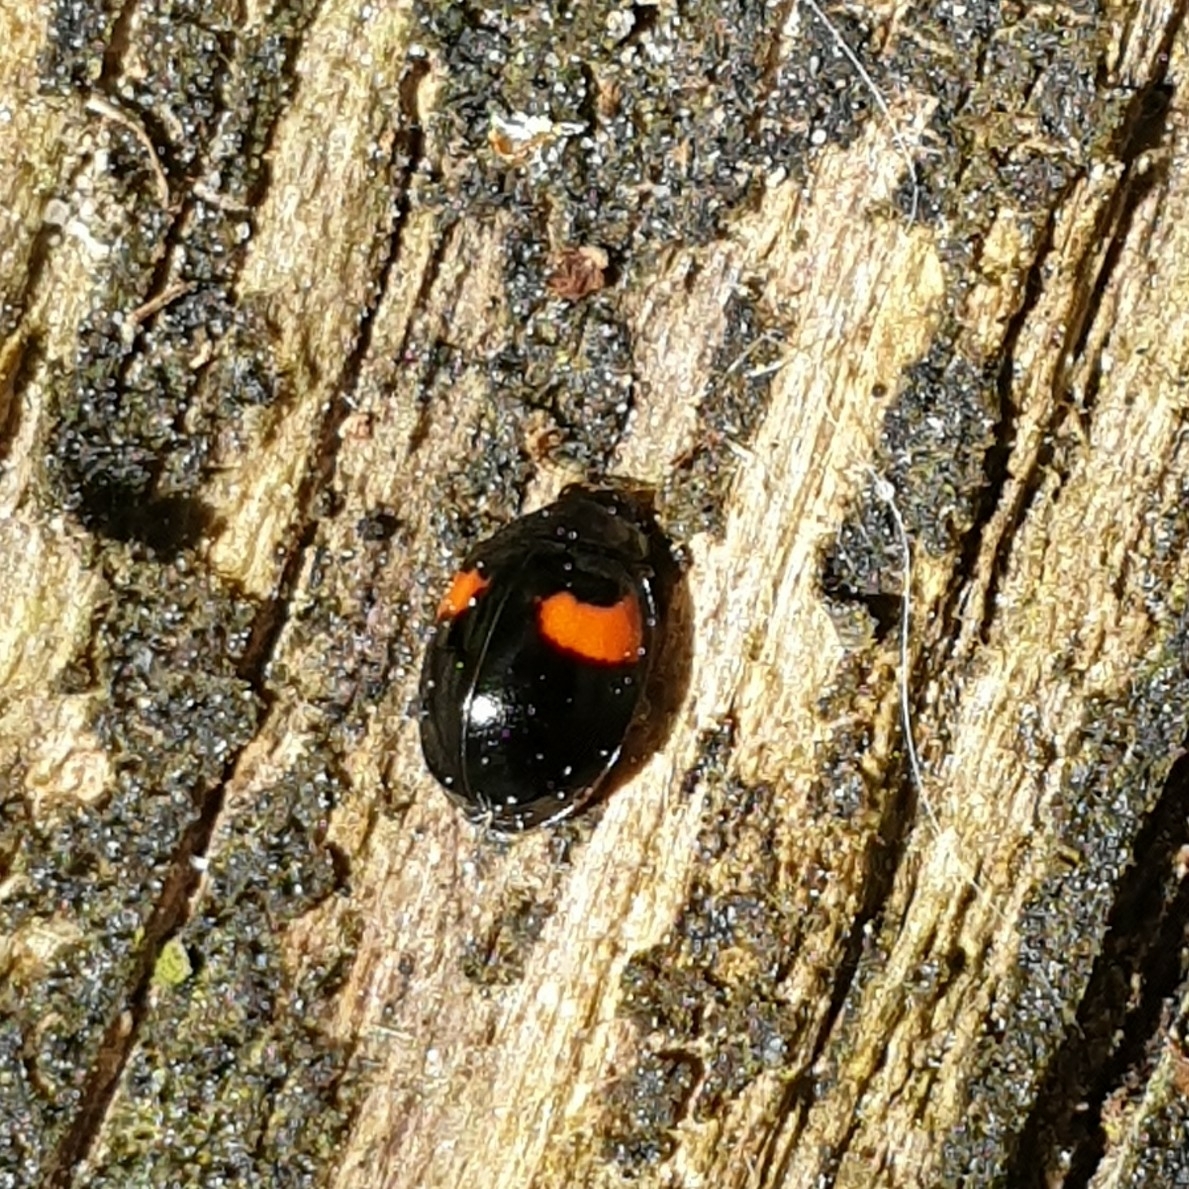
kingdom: Animalia
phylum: Arthropoda
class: Insecta
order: Coleoptera
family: Coccinellidae
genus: Adalia
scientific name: Adalia decempunctata
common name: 10-spot ladybird
